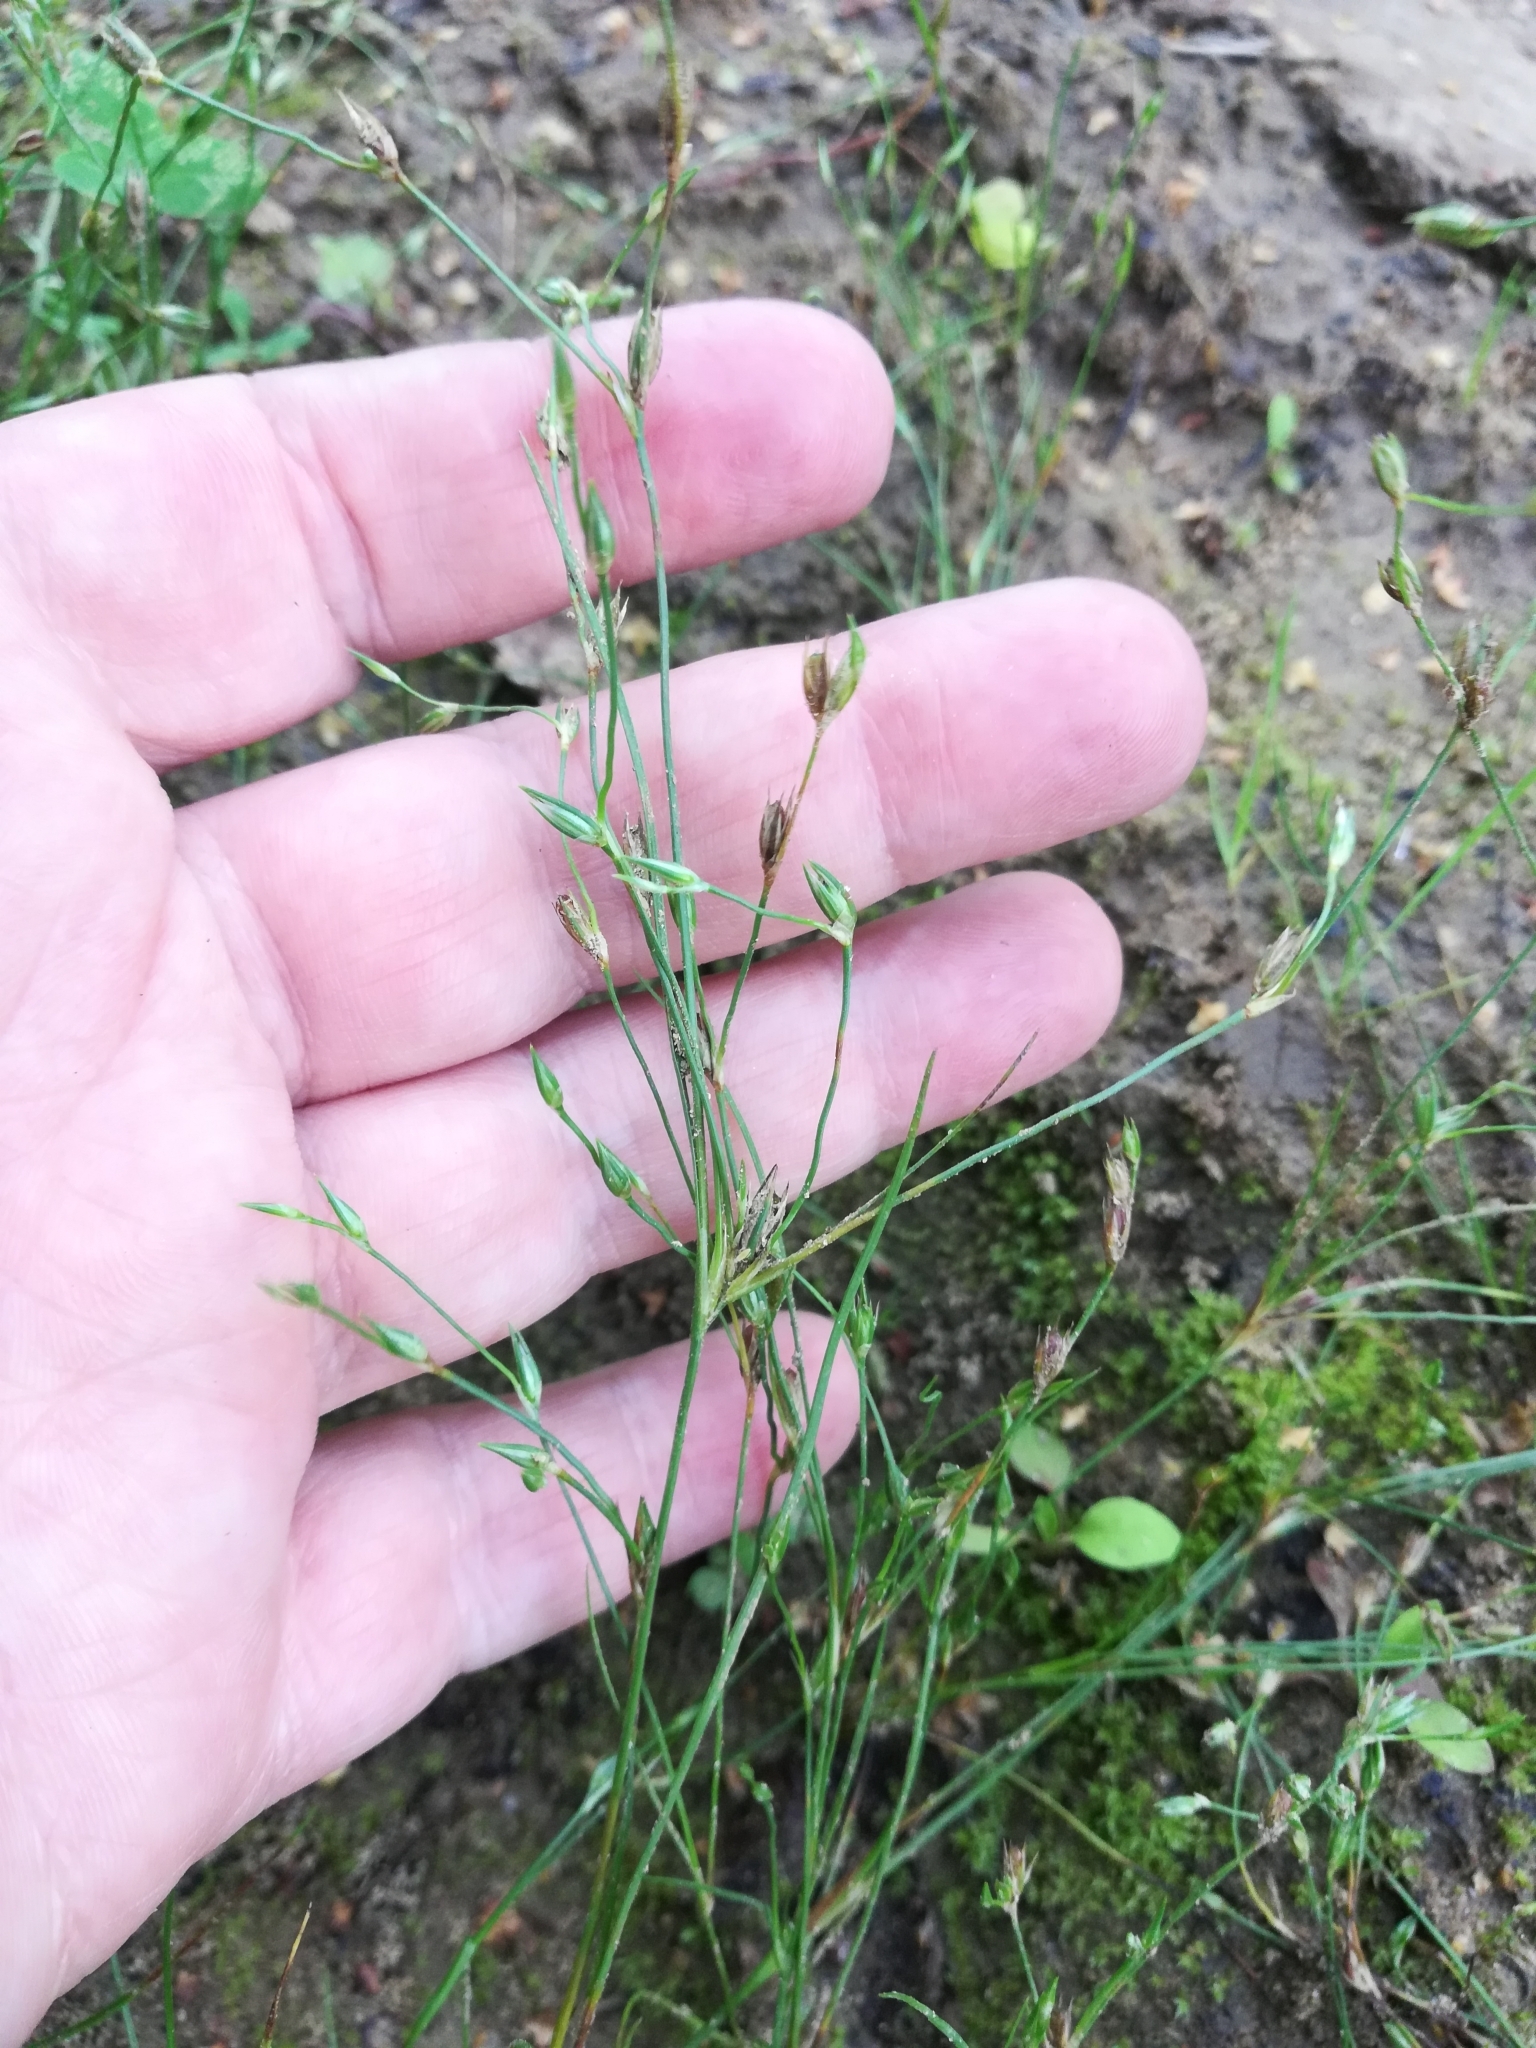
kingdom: Plantae
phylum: Tracheophyta
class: Liliopsida
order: Poales
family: Juncaceae
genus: Juncus
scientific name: Juncus bufonius
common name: Toad rush
